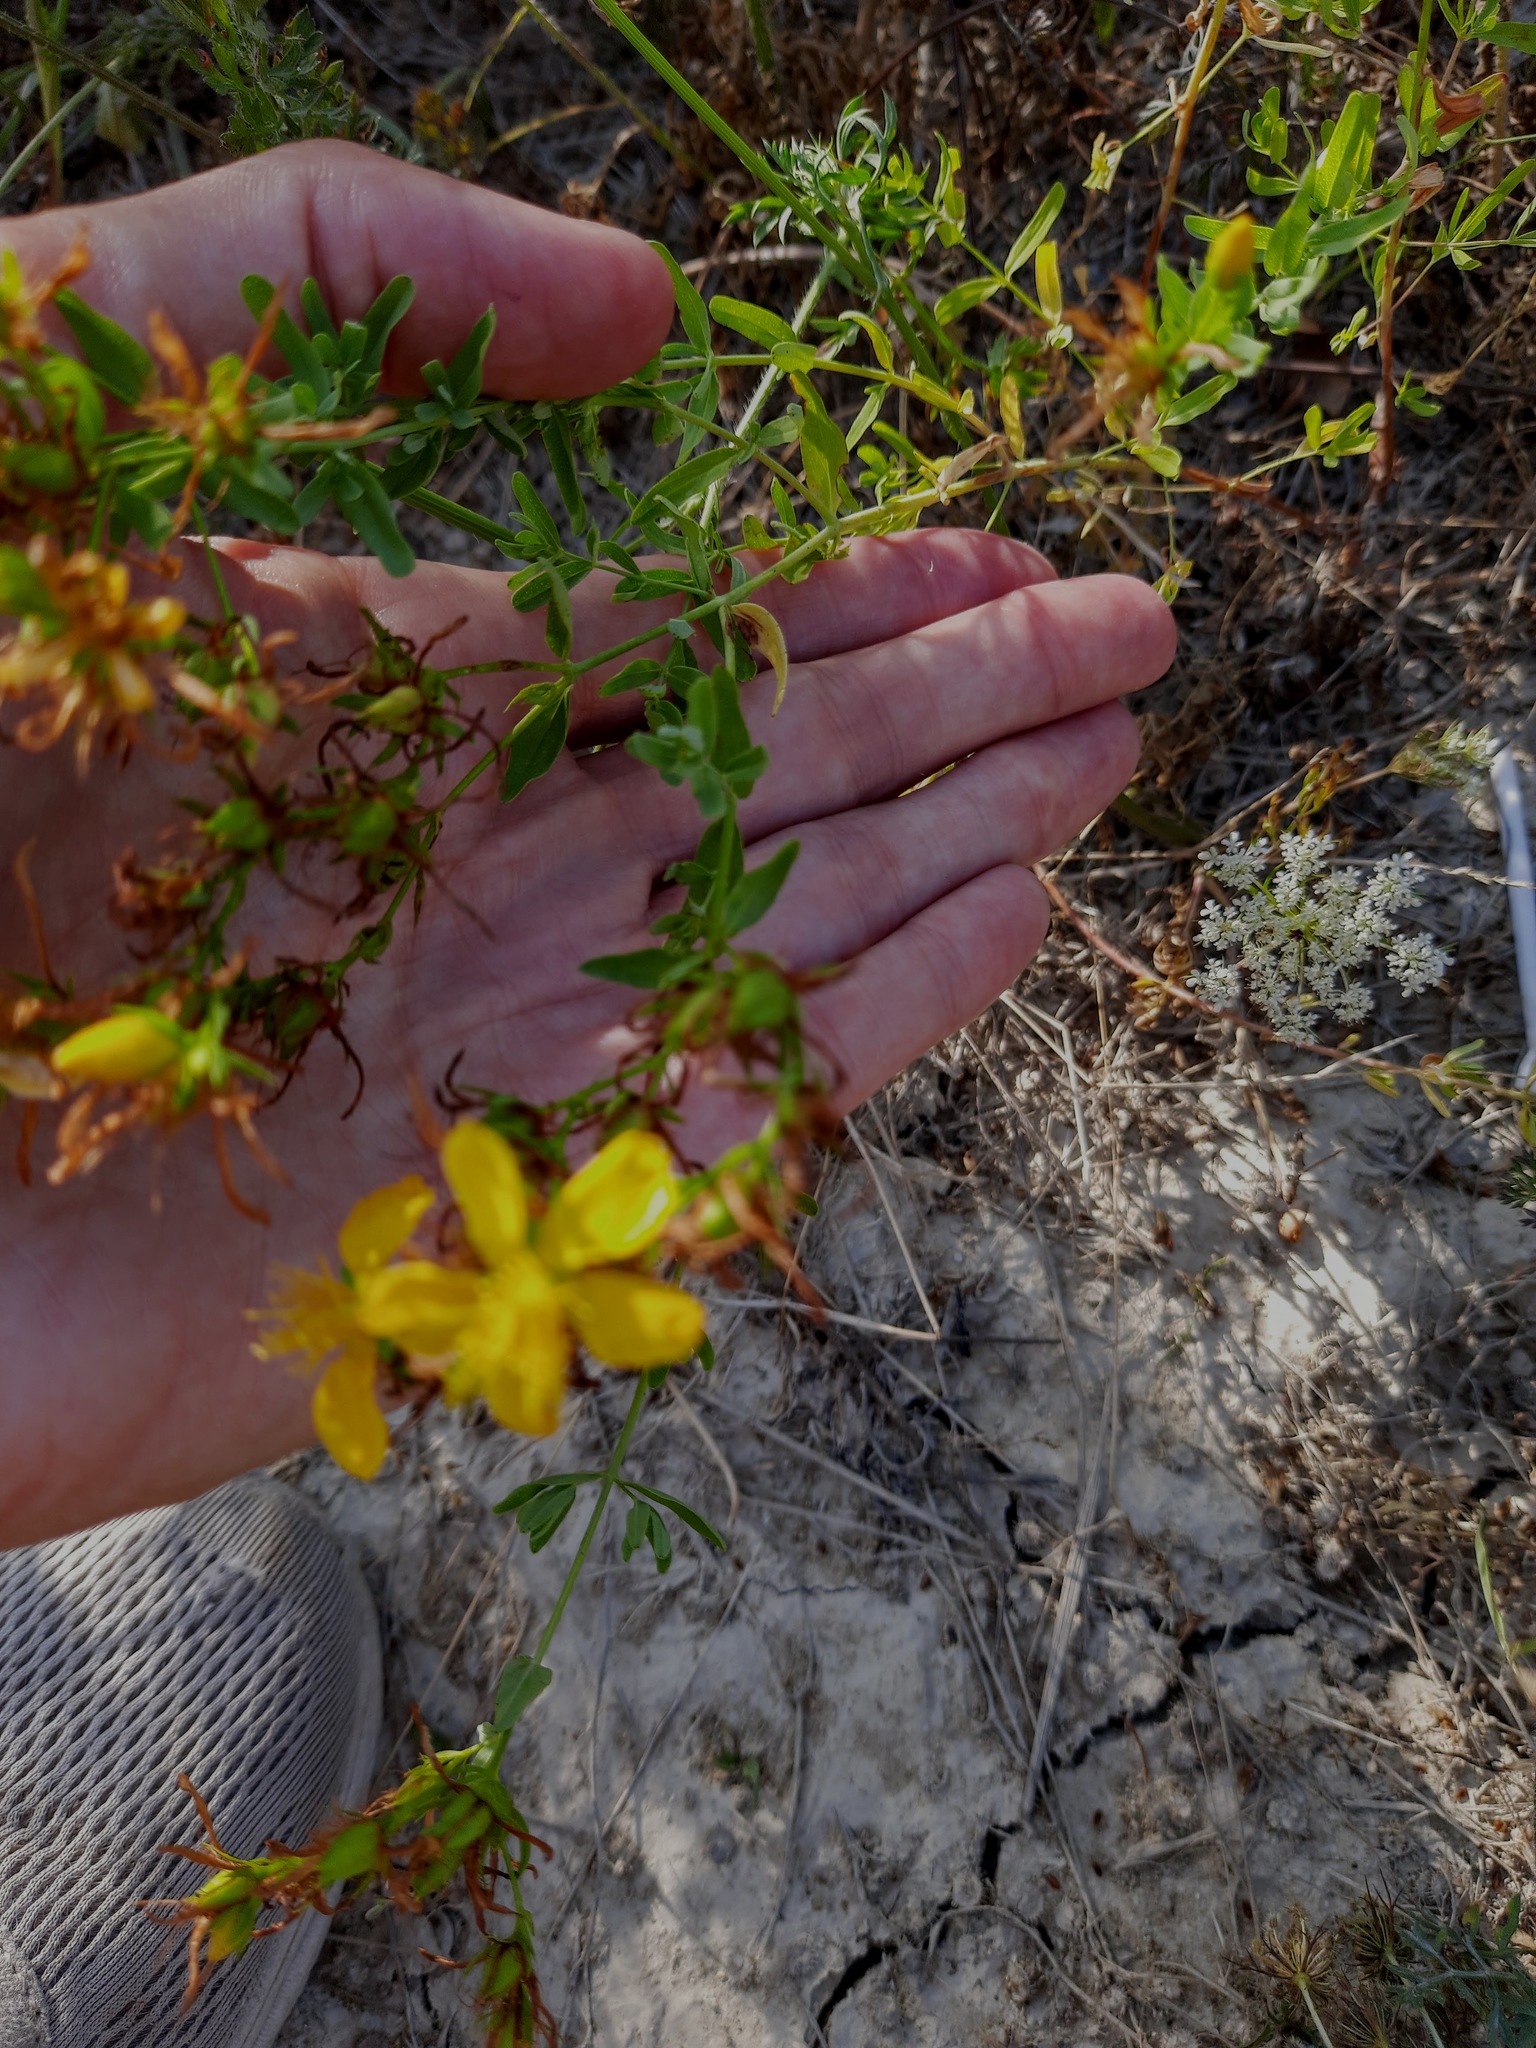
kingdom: Plantae
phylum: Tracheophyta
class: Magnoliopsida
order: Malpighiales
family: Hypericaceae
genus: Hypericum
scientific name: Hypericum perforatum
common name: Common st. johnswort
